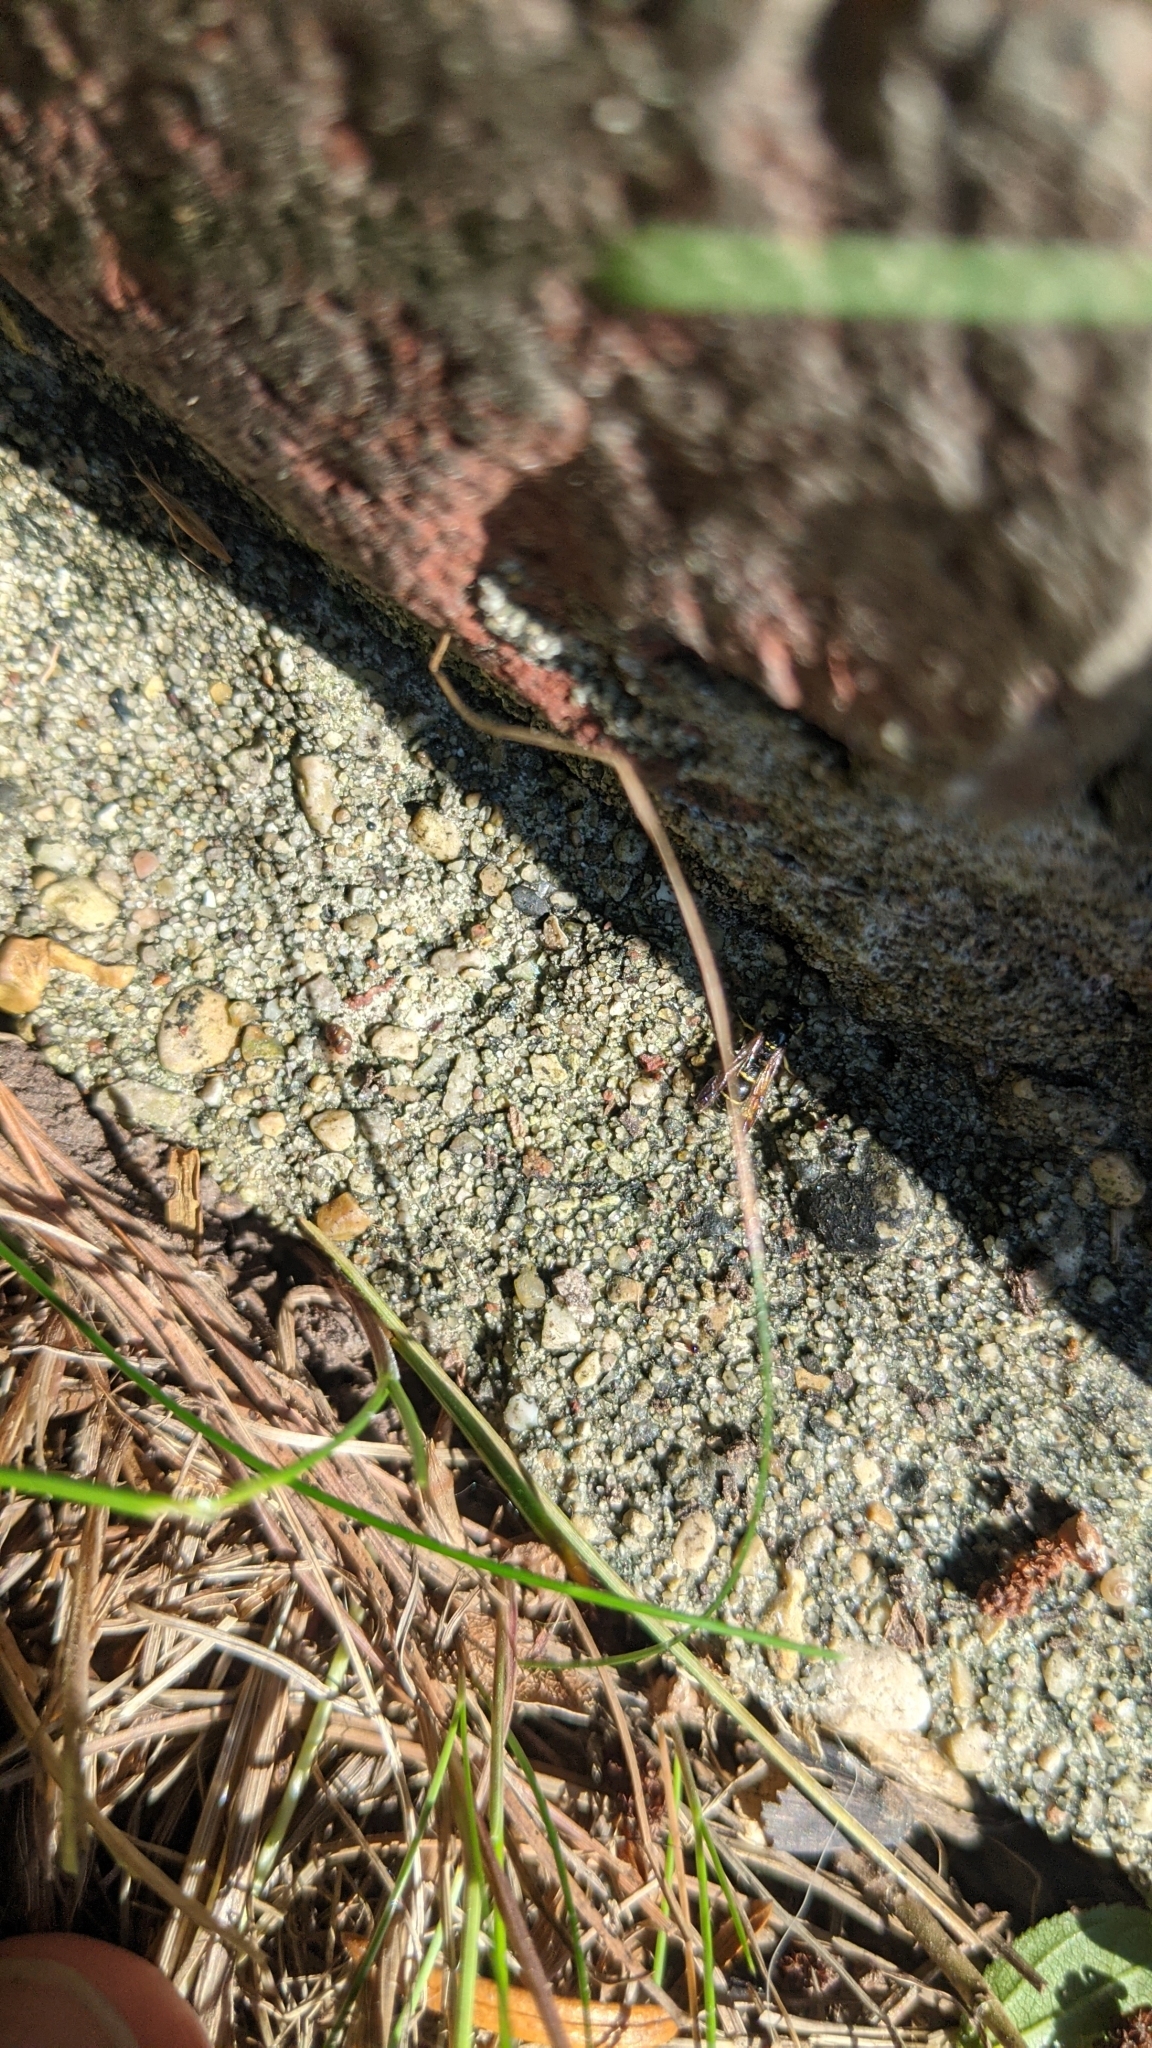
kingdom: Animalia
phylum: Arthropoda
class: Insecta
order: Hymenoptera
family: Eumenidae
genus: Symmorphus
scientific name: Symmorphus
